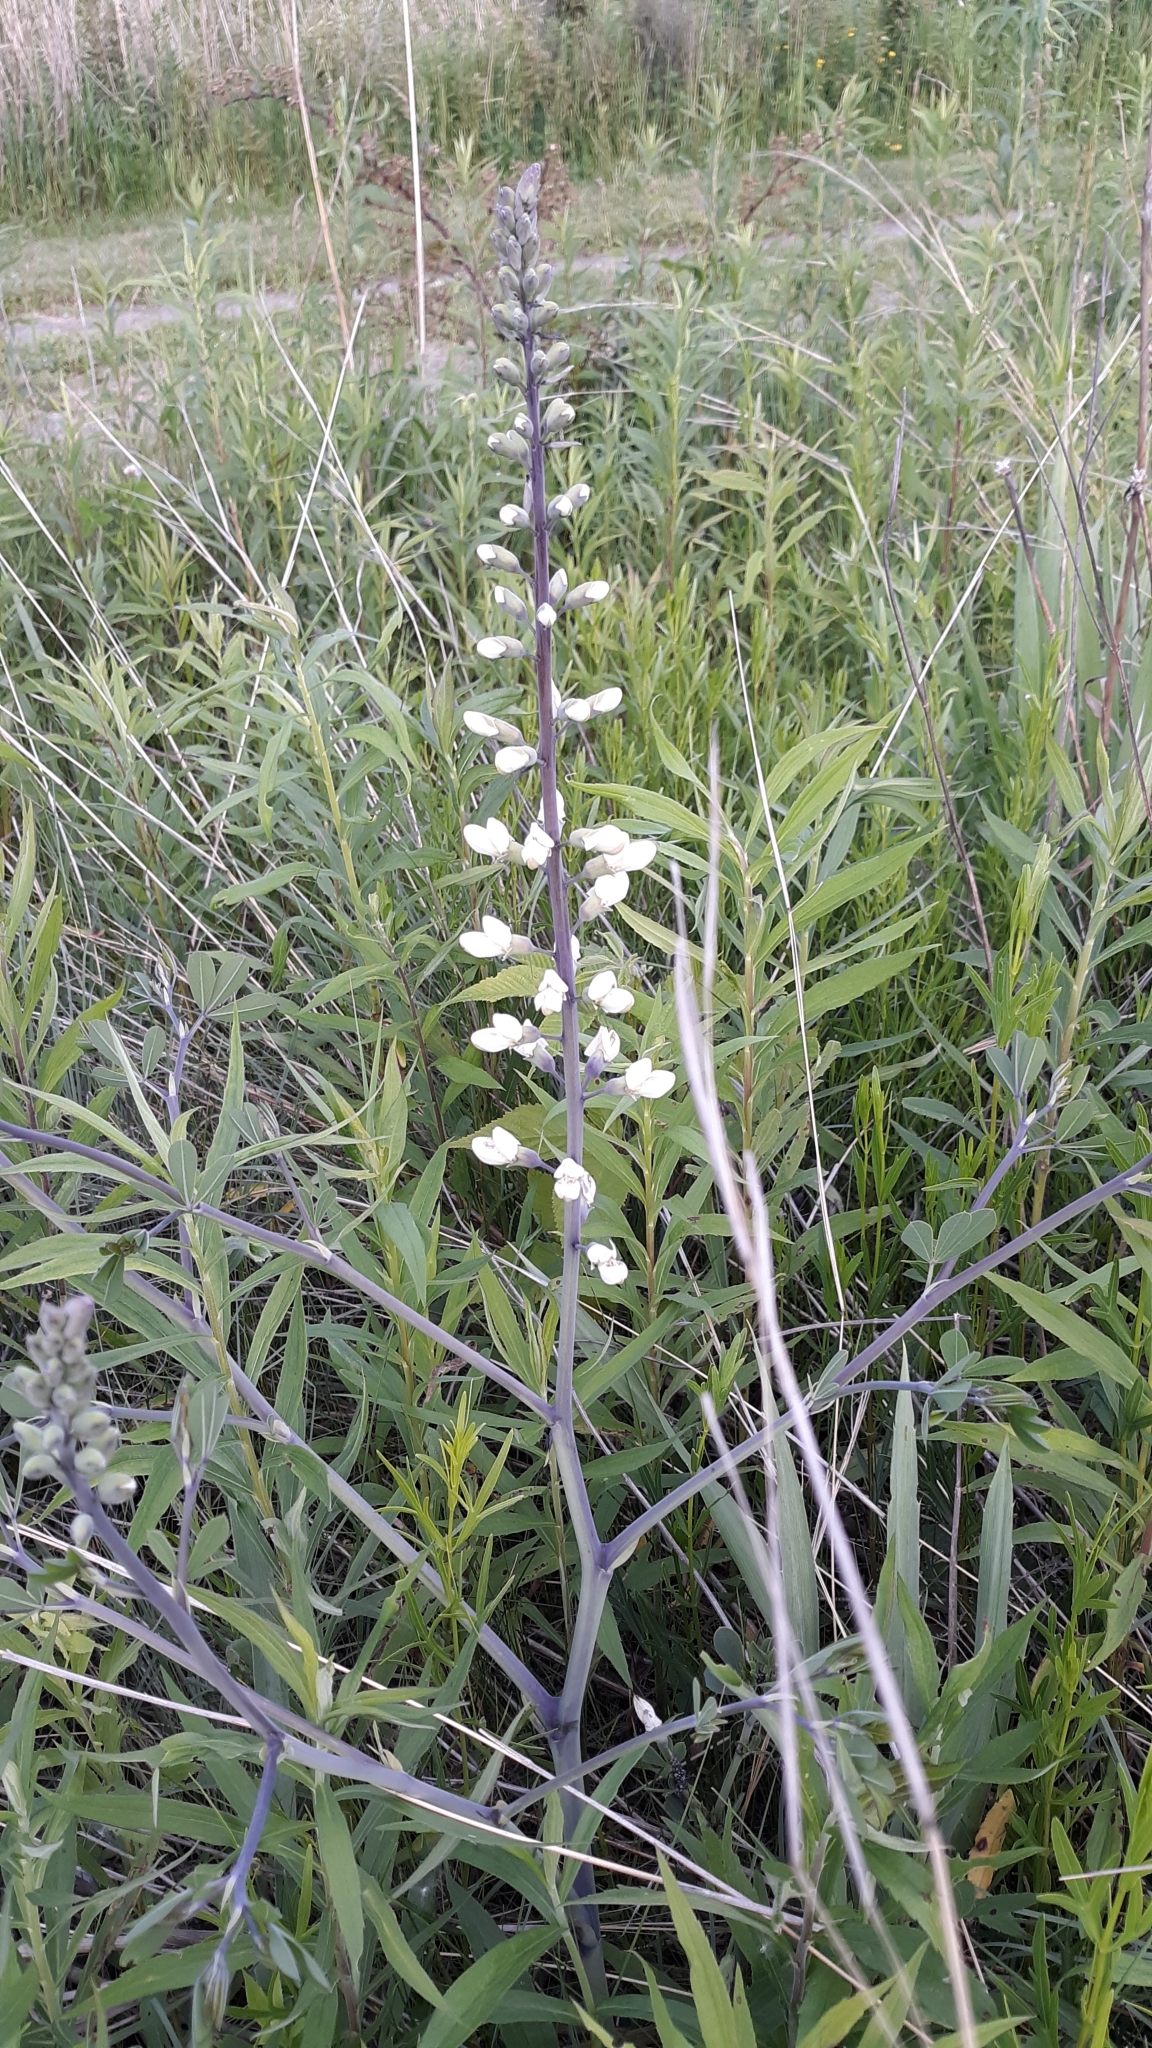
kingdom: Plantae
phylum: Tracheophyta
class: Magnoliopsida
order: Fabales
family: Fabaceae
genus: Baptisia
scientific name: Baptisia alba
